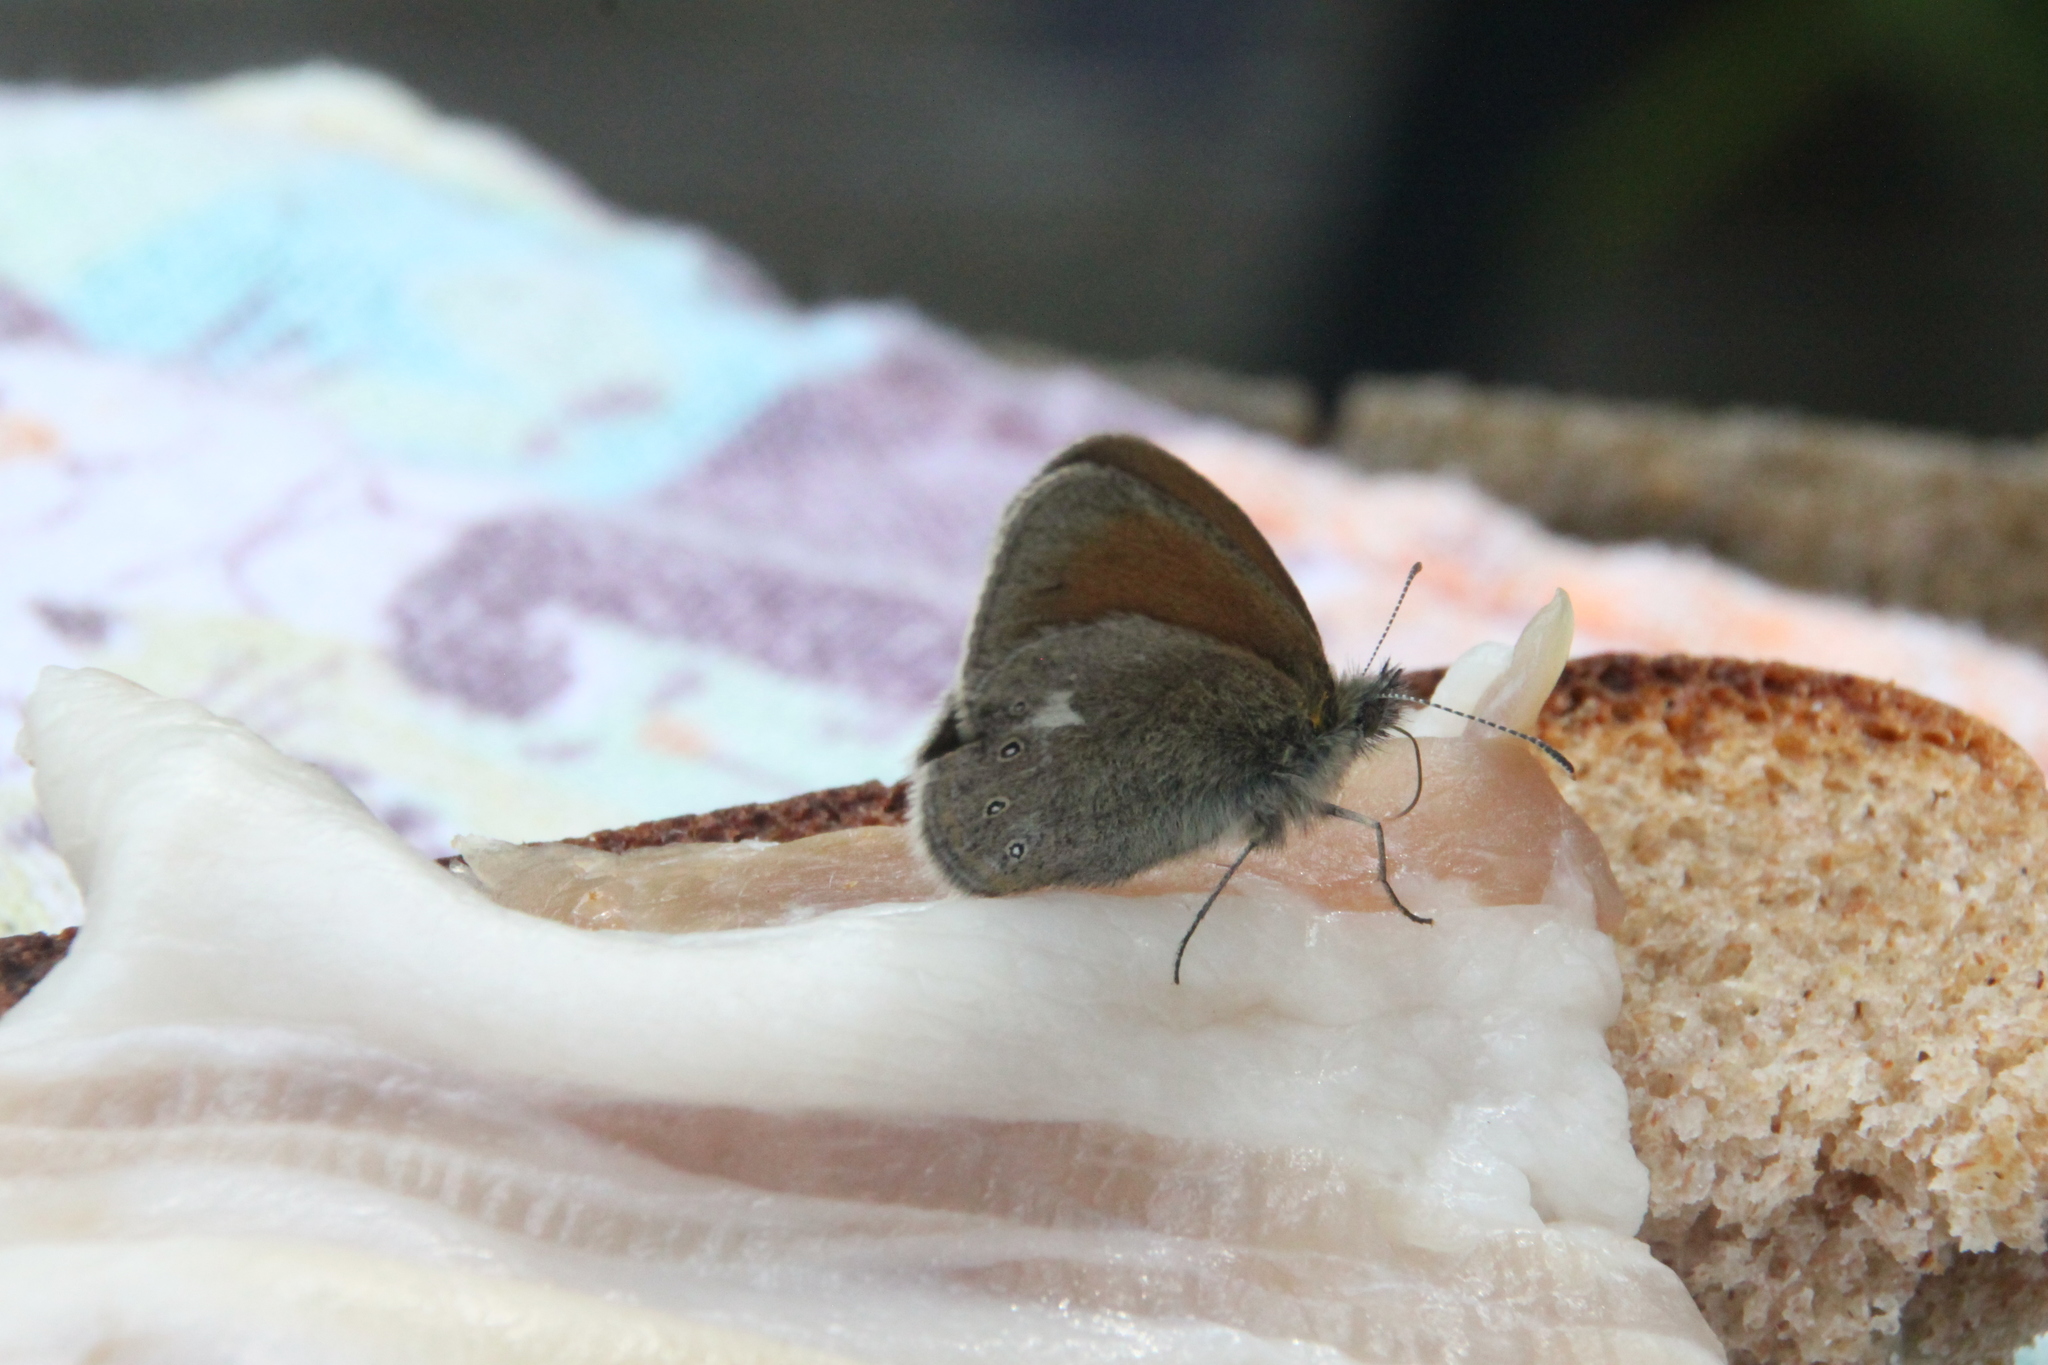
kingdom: Animalia
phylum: Arthropoda
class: Insecta
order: Lepidoptera
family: Nymphalidae
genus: Coenonympha
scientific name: Coenonympha iphis
